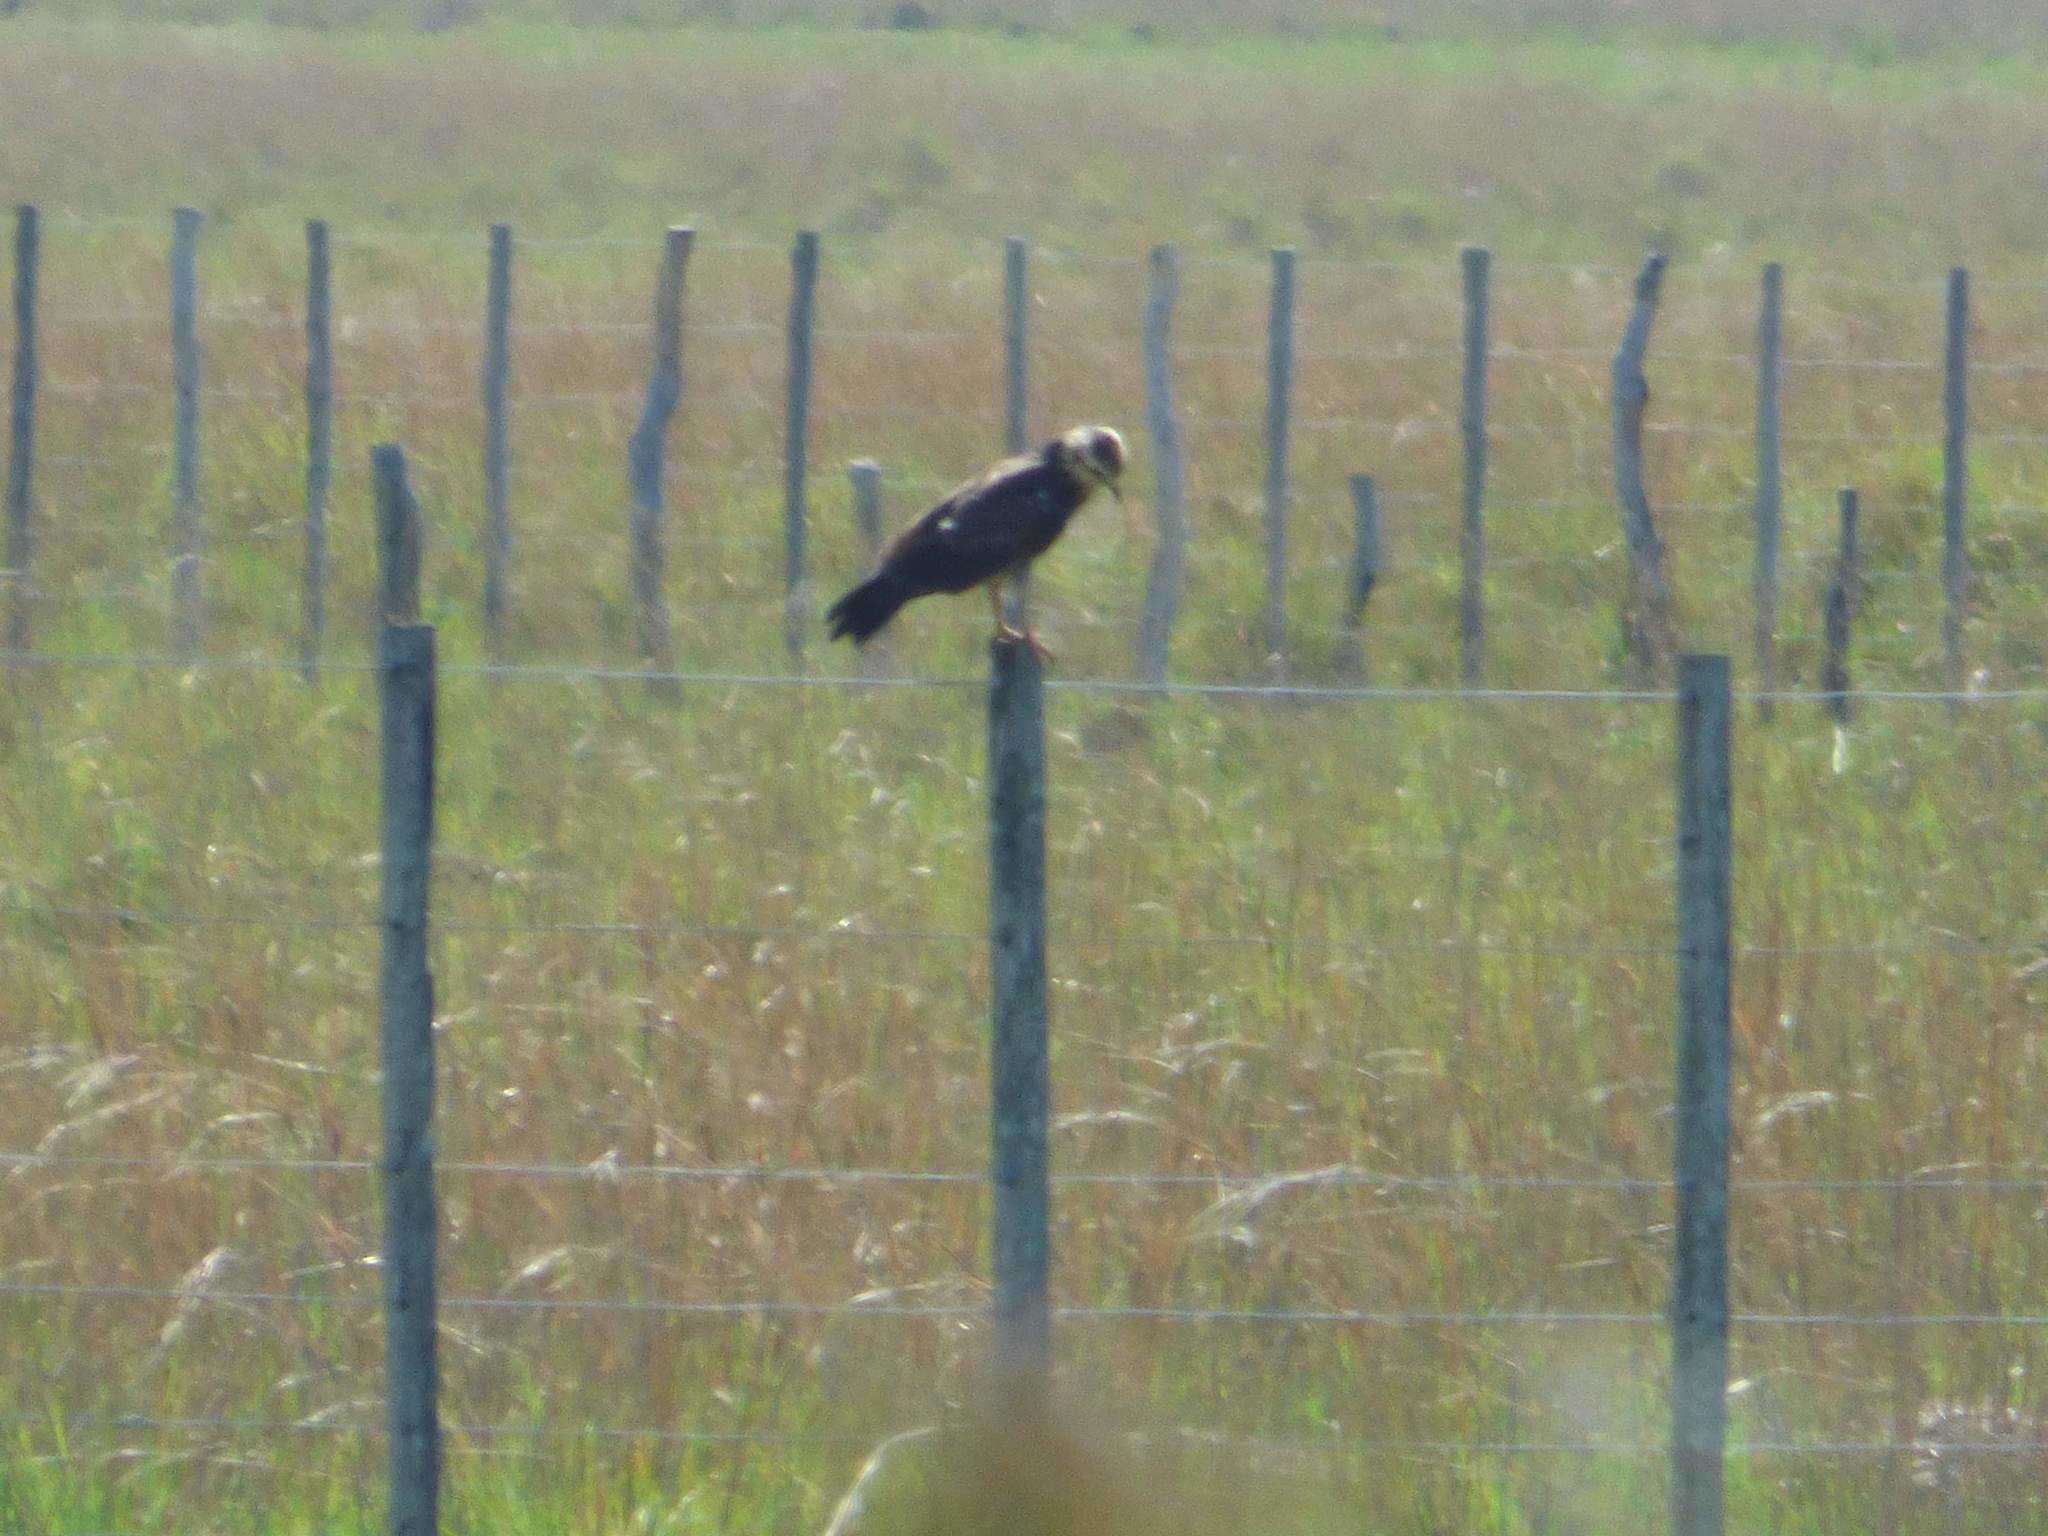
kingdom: Animalia
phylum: Chordata
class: Aves
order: Falconiformes
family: Falconidae
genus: Daptrius
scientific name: Daptrius
